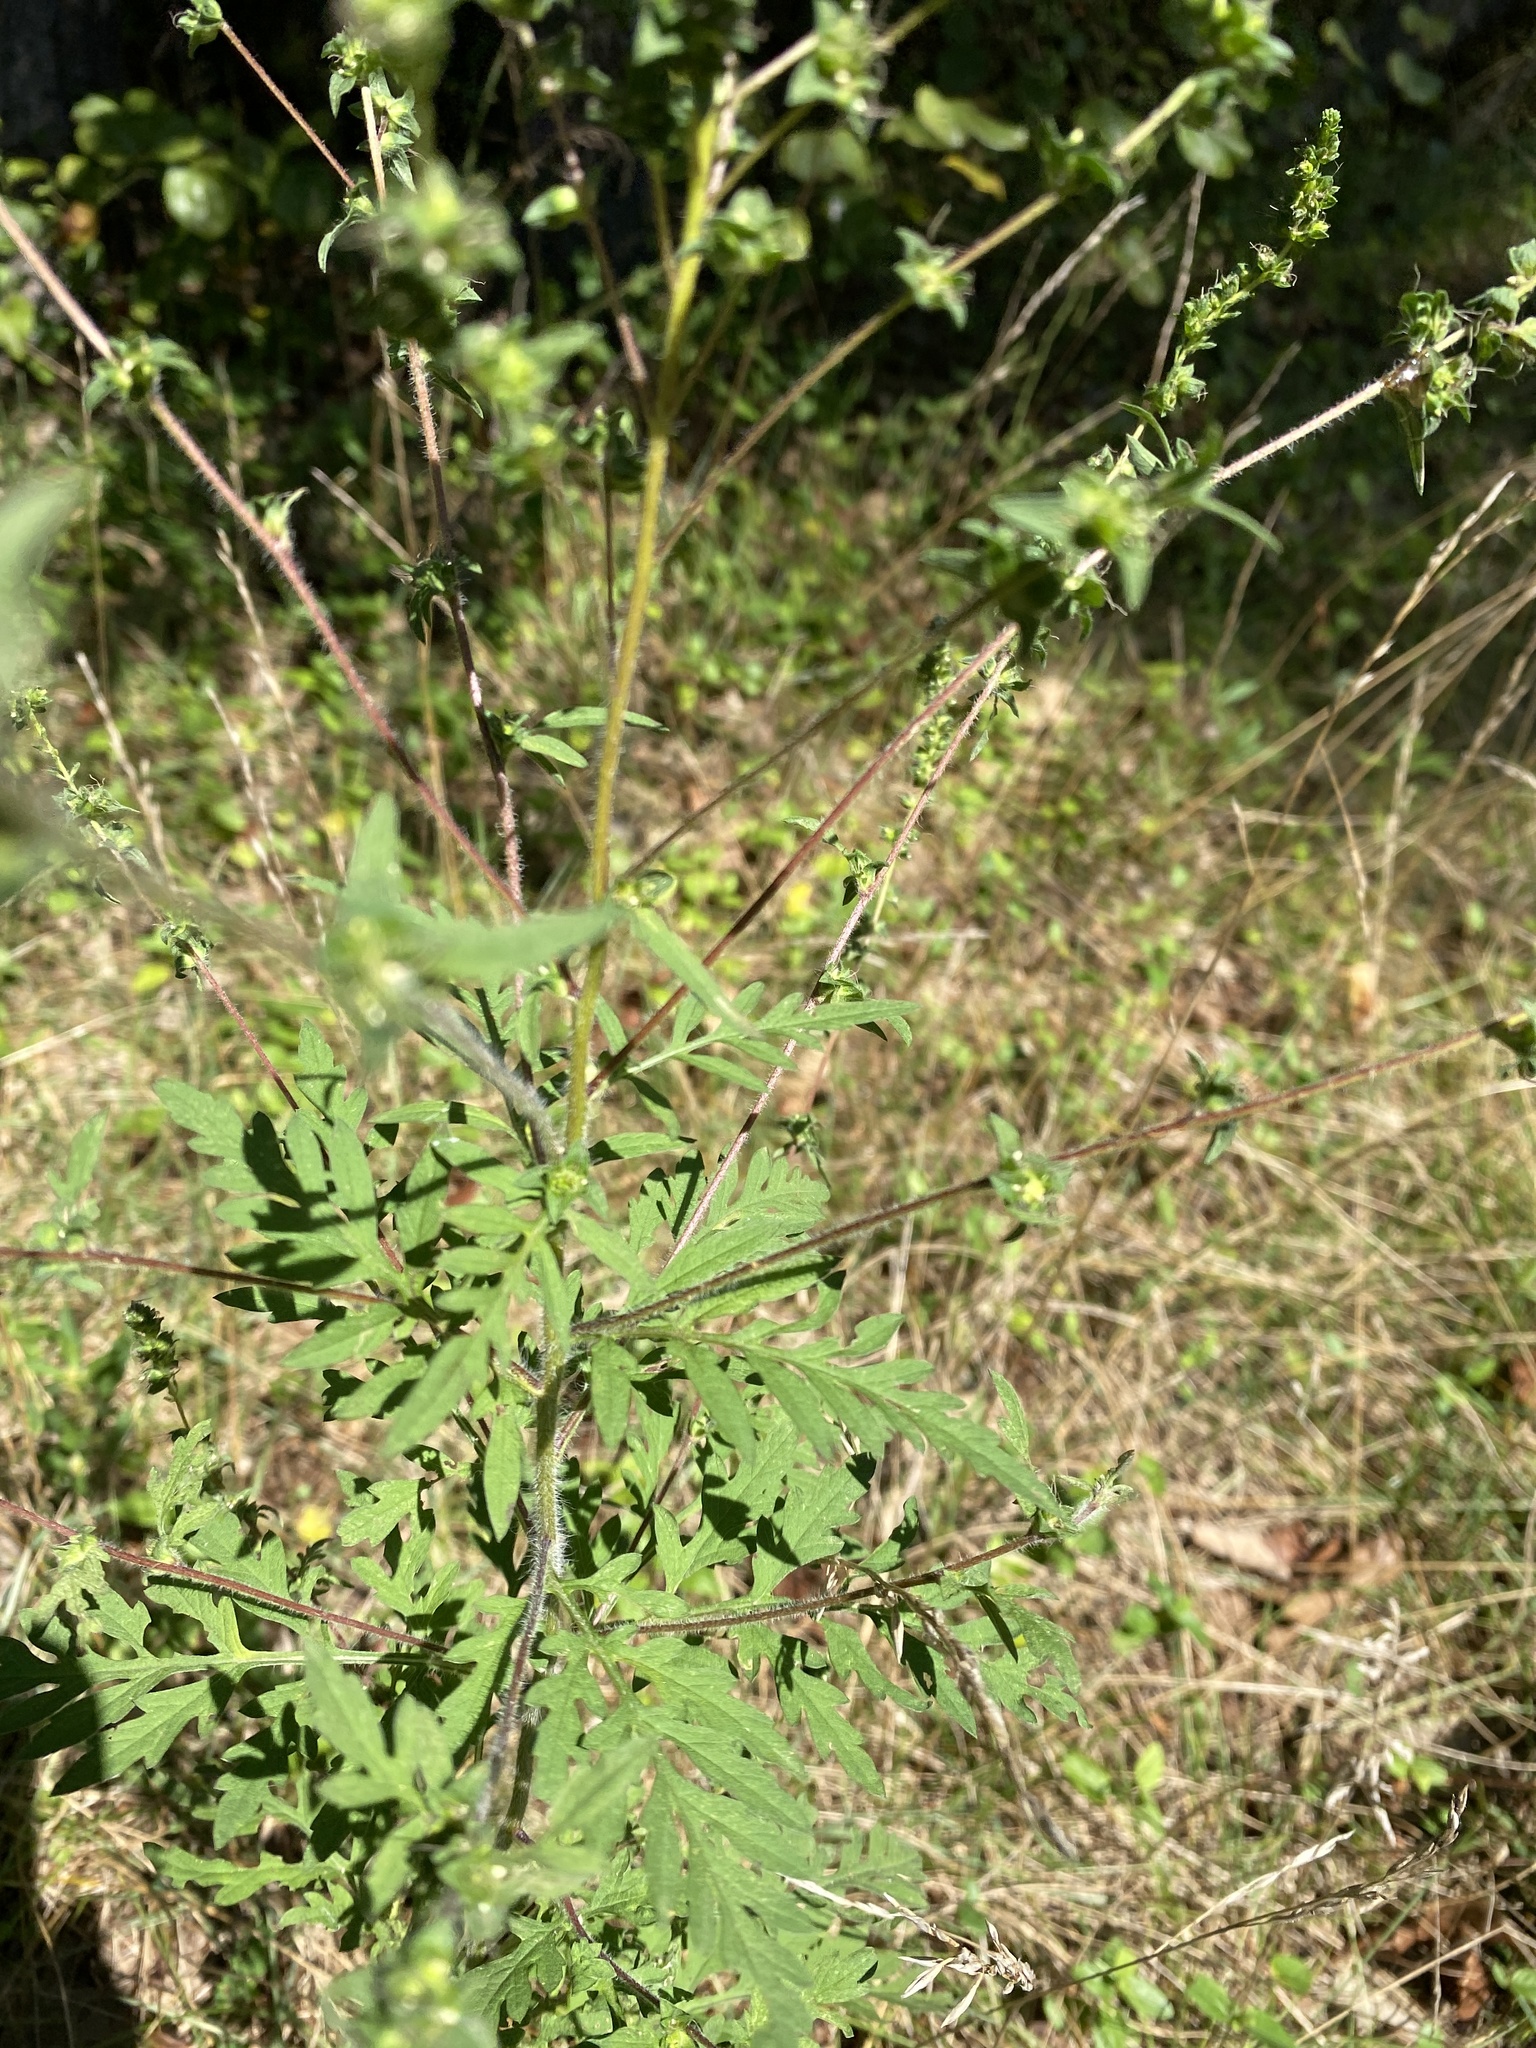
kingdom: Plantae
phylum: Tracheophyta
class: Magnoliopsida
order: Asterales
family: Asteraceae
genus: Ambrosia
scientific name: Ambrosia artemisiifolia
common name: Annual ragweed
